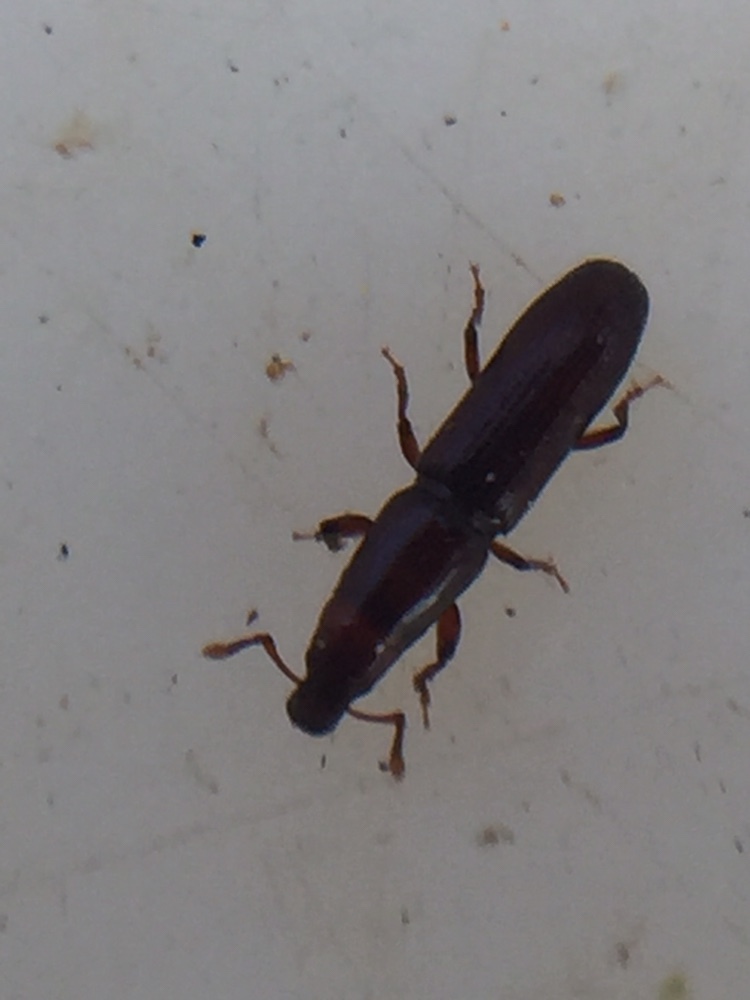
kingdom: Animalia
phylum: Arthropoda
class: Insecta
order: Coleoptera
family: Curculionidae
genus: Eutornus
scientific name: Eutornus littoralis
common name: Driftwood weevil
